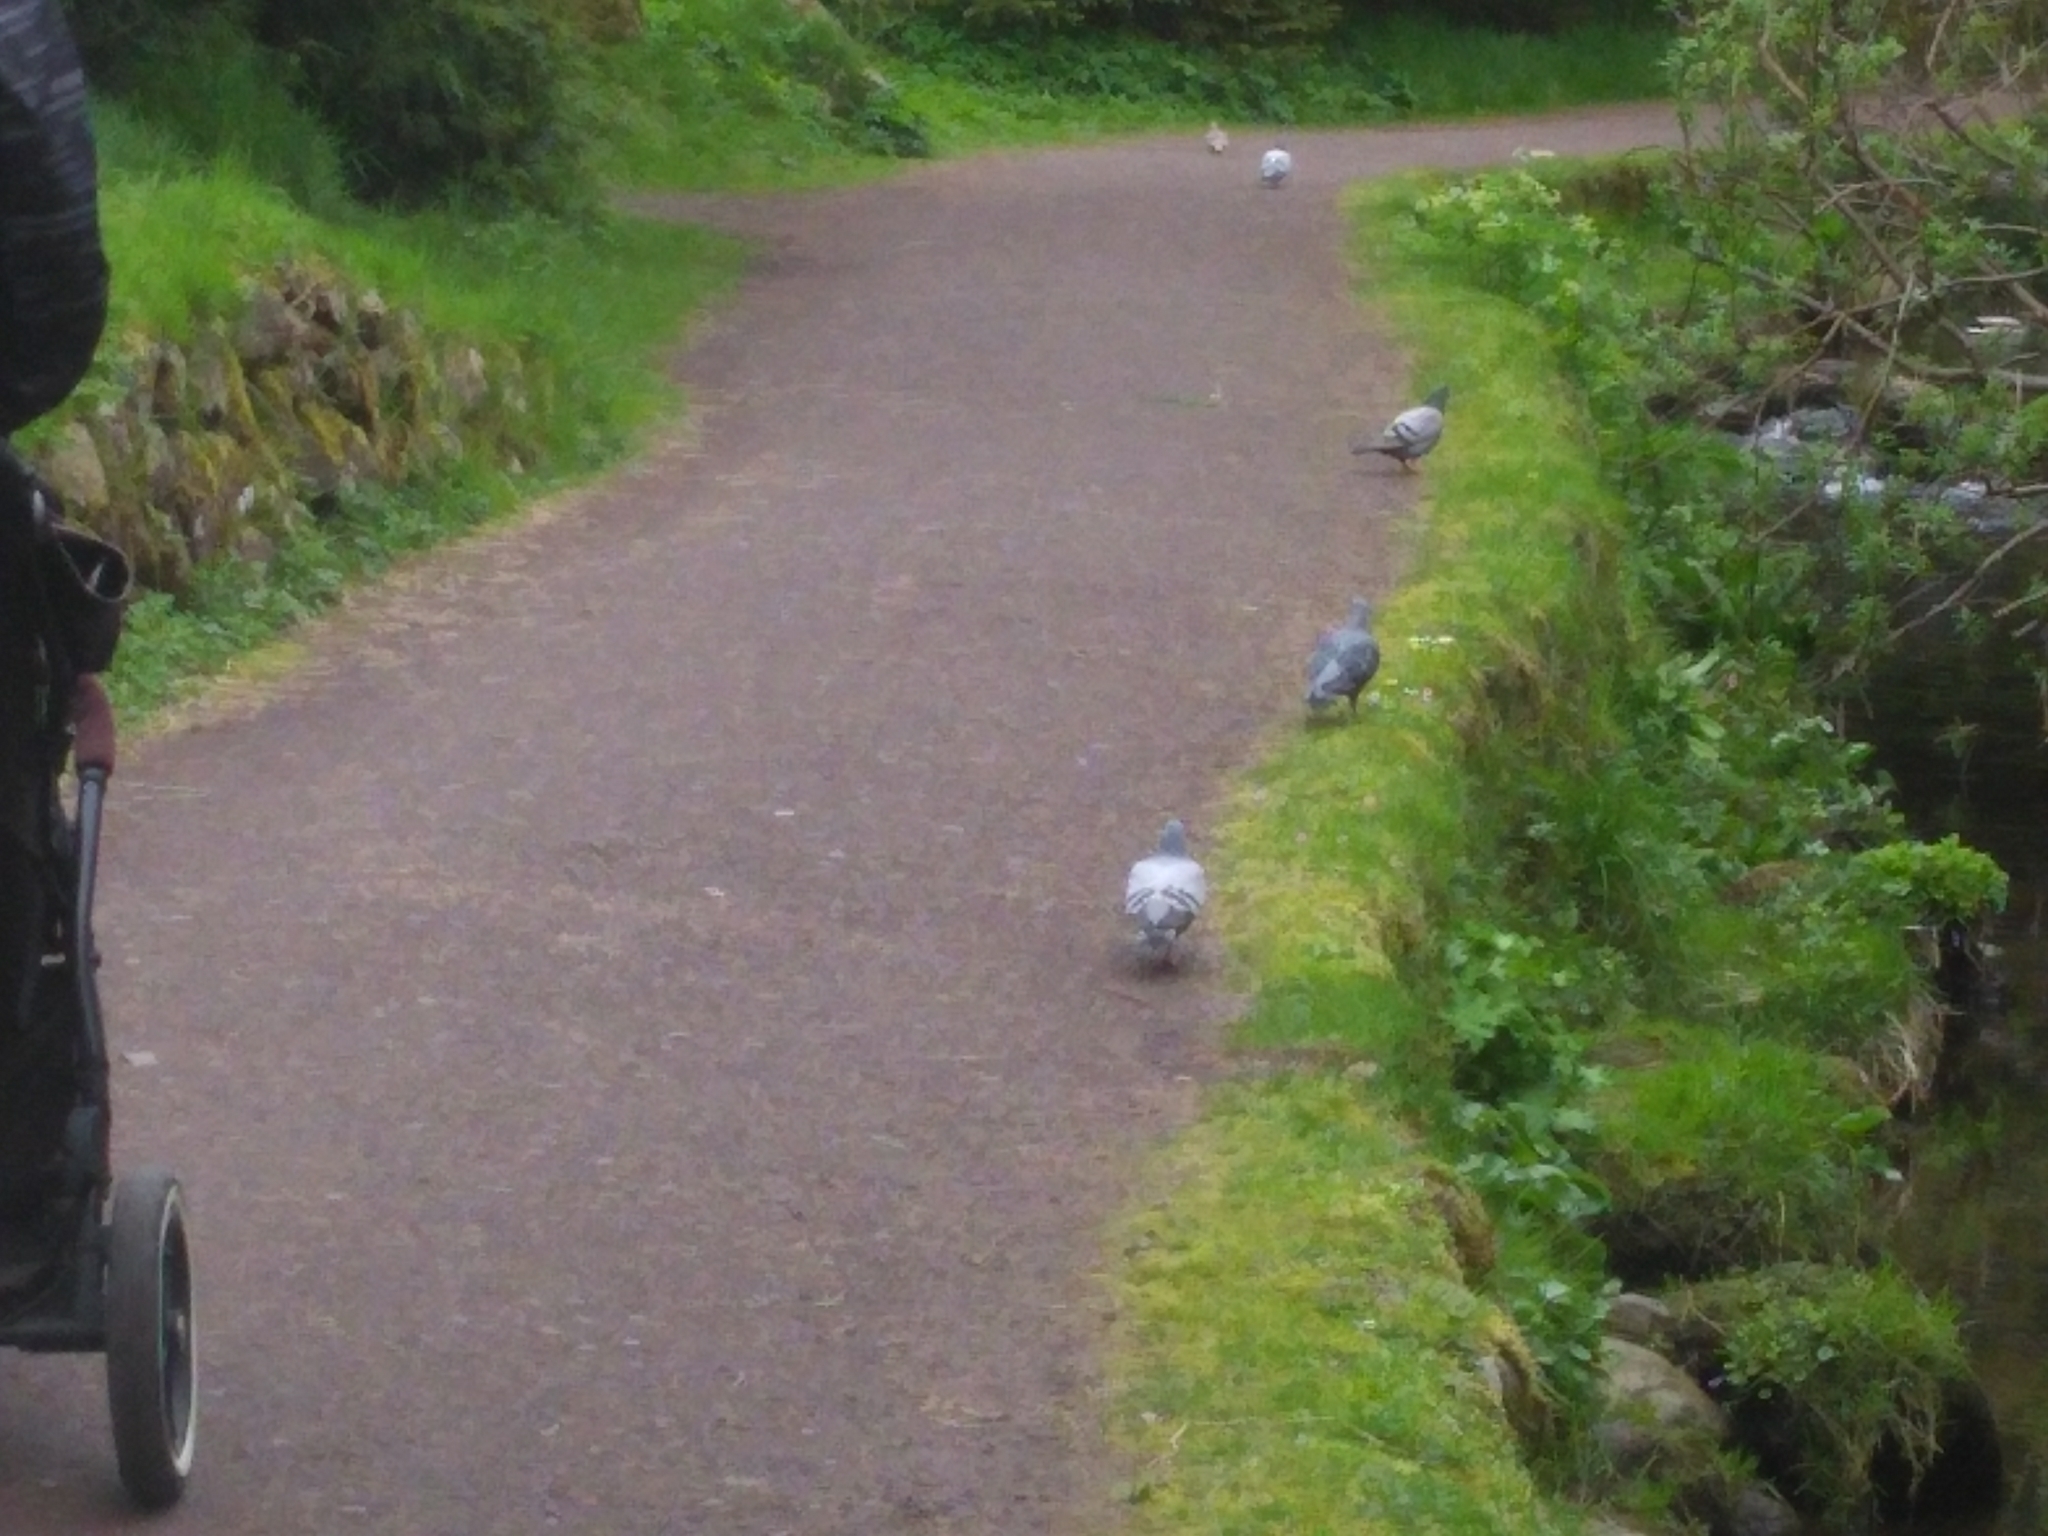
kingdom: Animalia
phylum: Chordata
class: Aves
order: Columbiformes
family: Columbidae
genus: Columba
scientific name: Columba livia
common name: Rock pigeon
